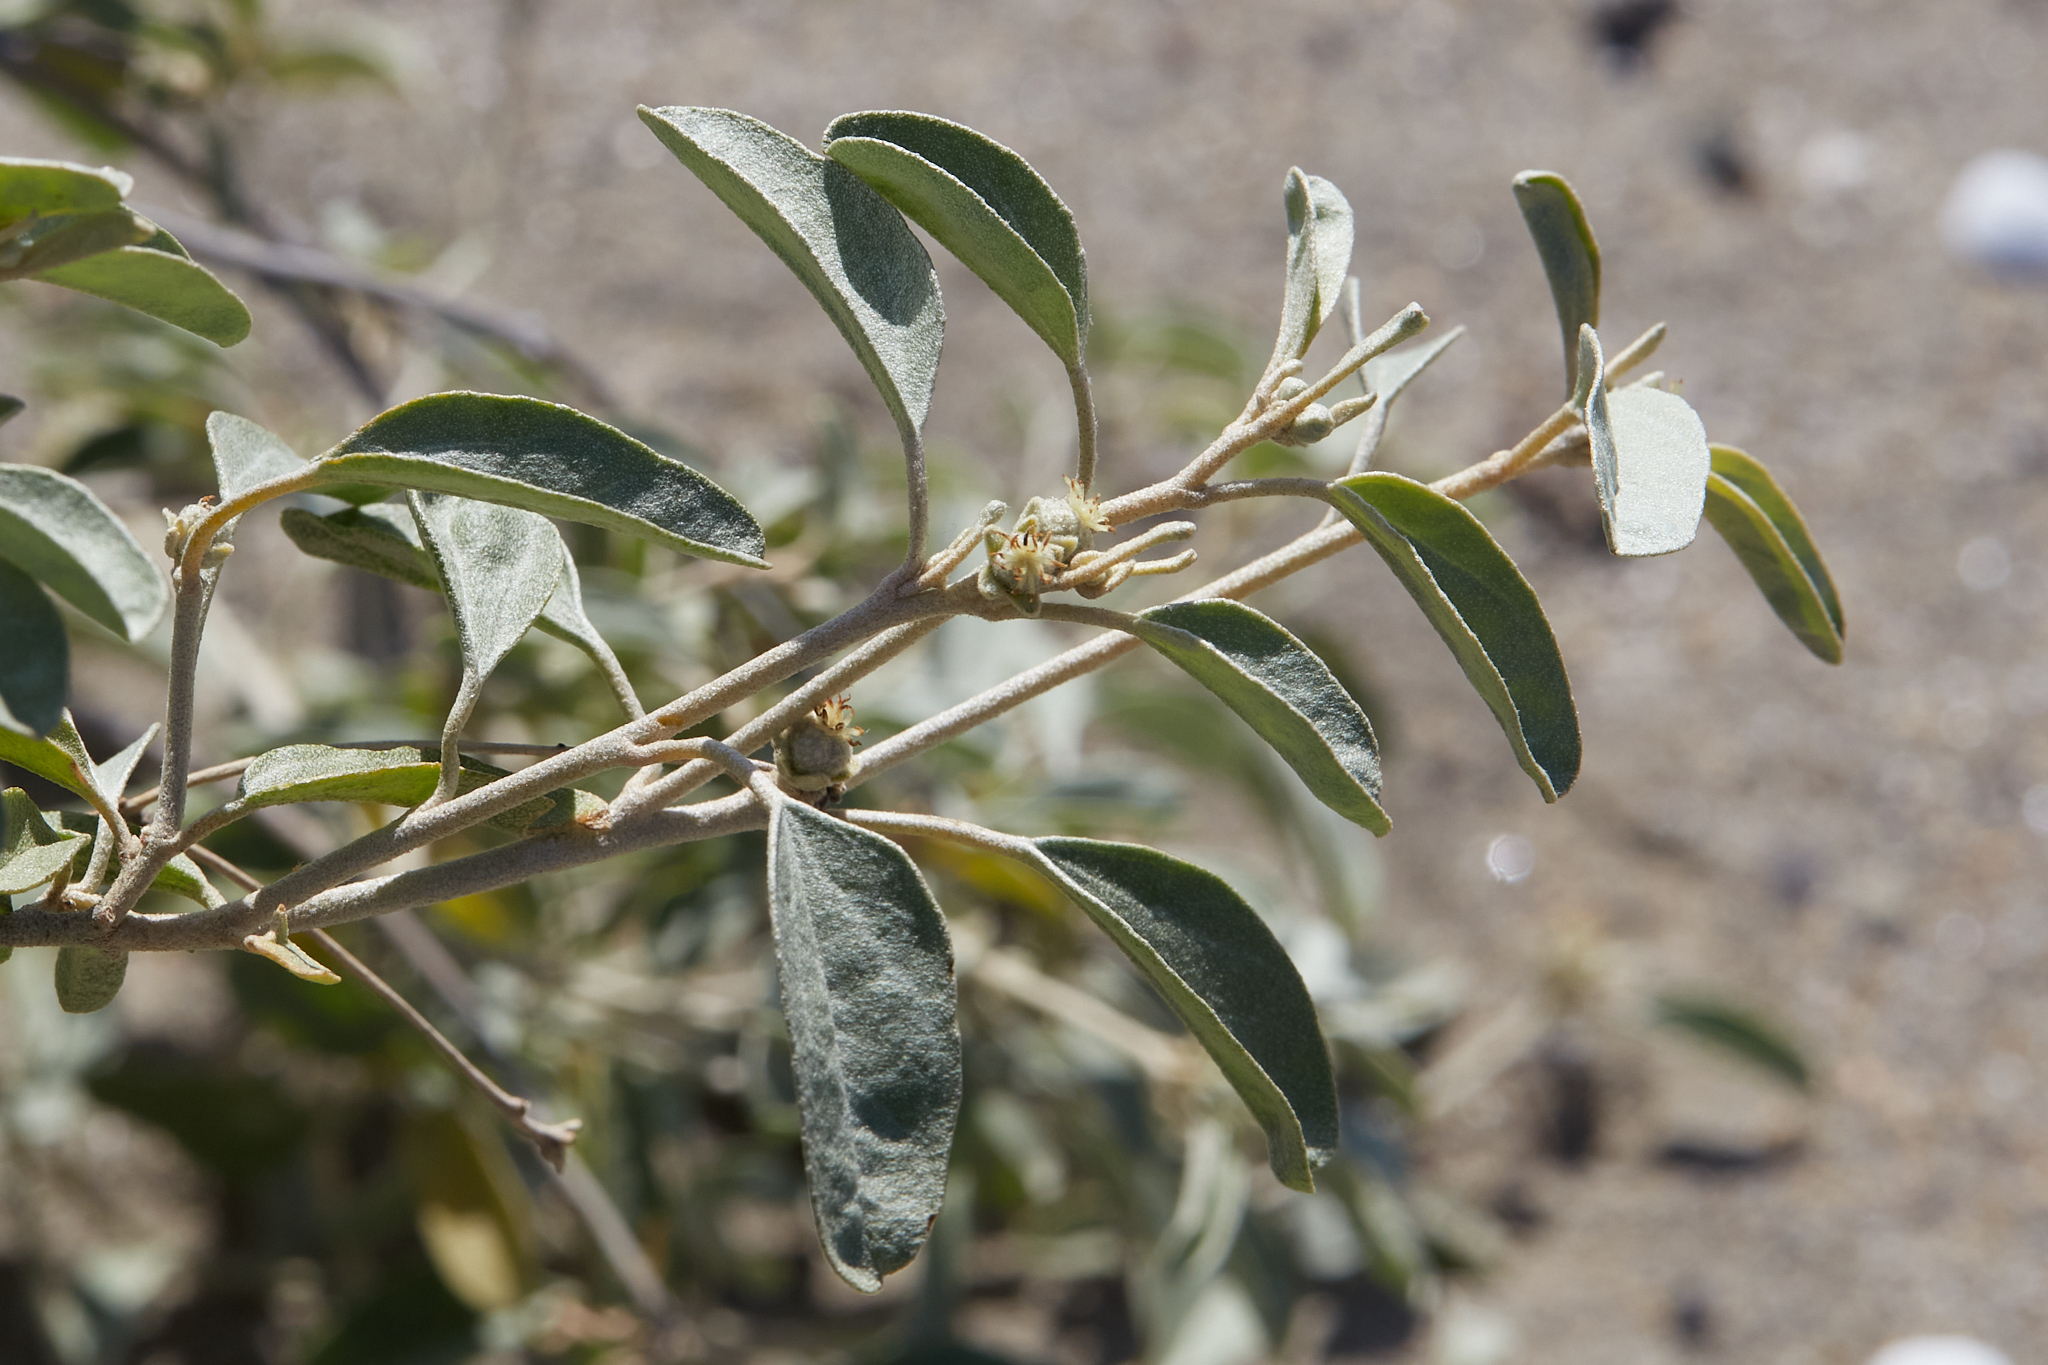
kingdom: Plantae
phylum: Tracheophyta
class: Magnoliopsida
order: Malpighiales
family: Euphorbiaceae
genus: Croton
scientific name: Croton californicus
